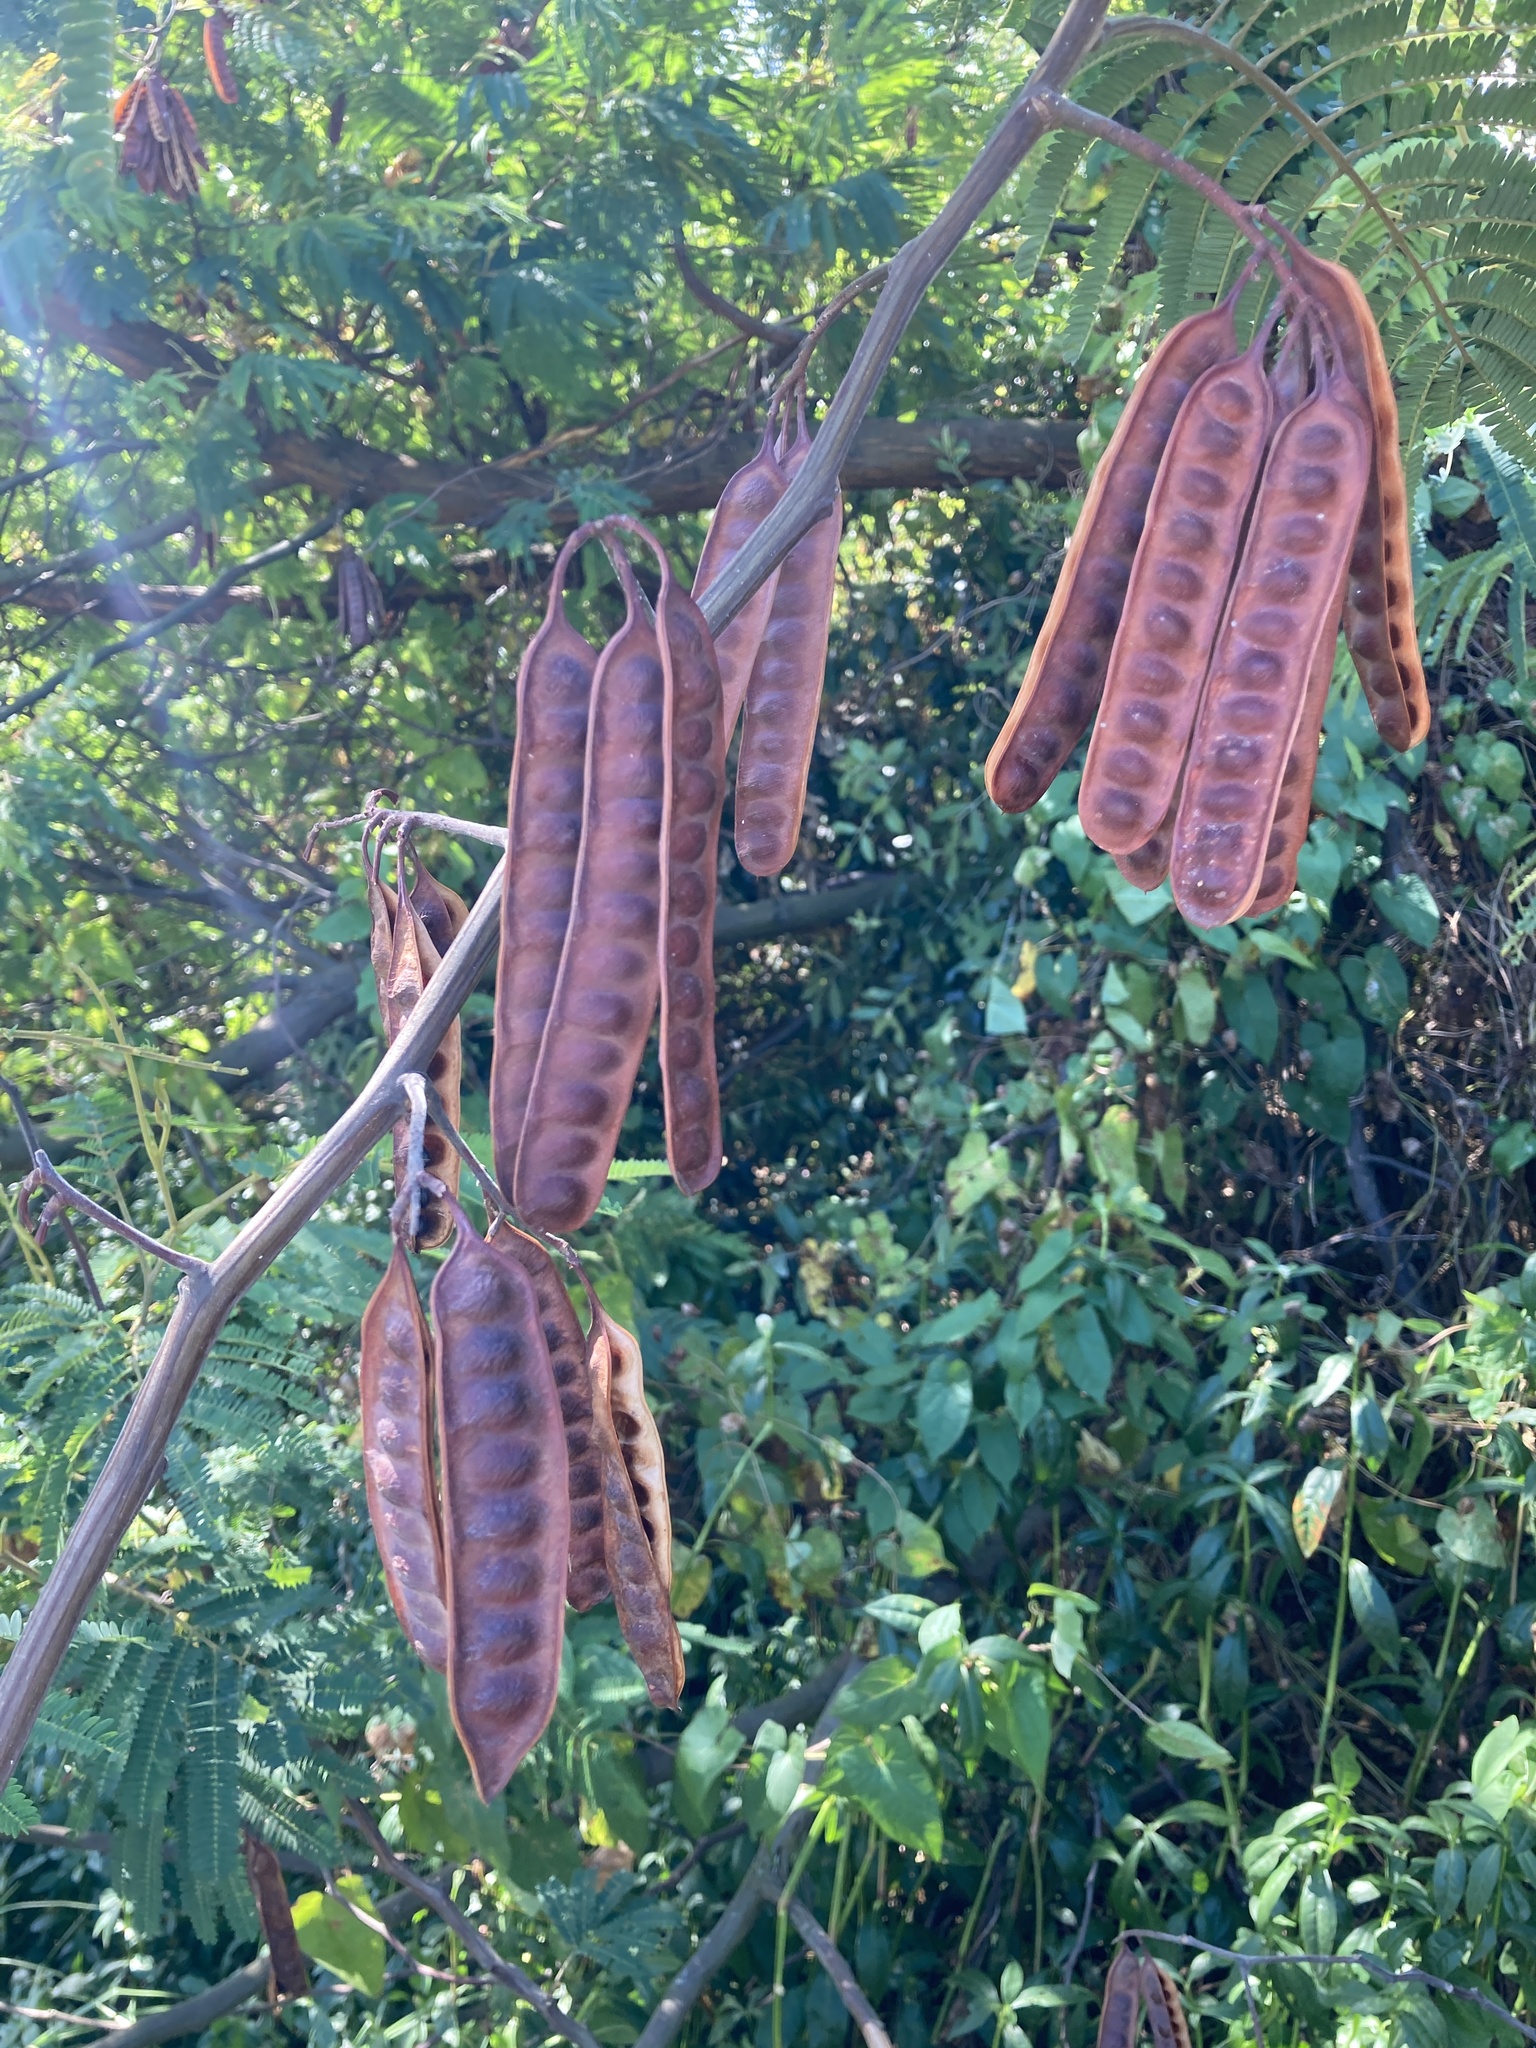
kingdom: Plantae
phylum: Tracheophyta
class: Magnoliopsida
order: Fabales
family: Fabaceae
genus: Paraserianthes
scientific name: Paraserianthes lophantha
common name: Plume albizia
